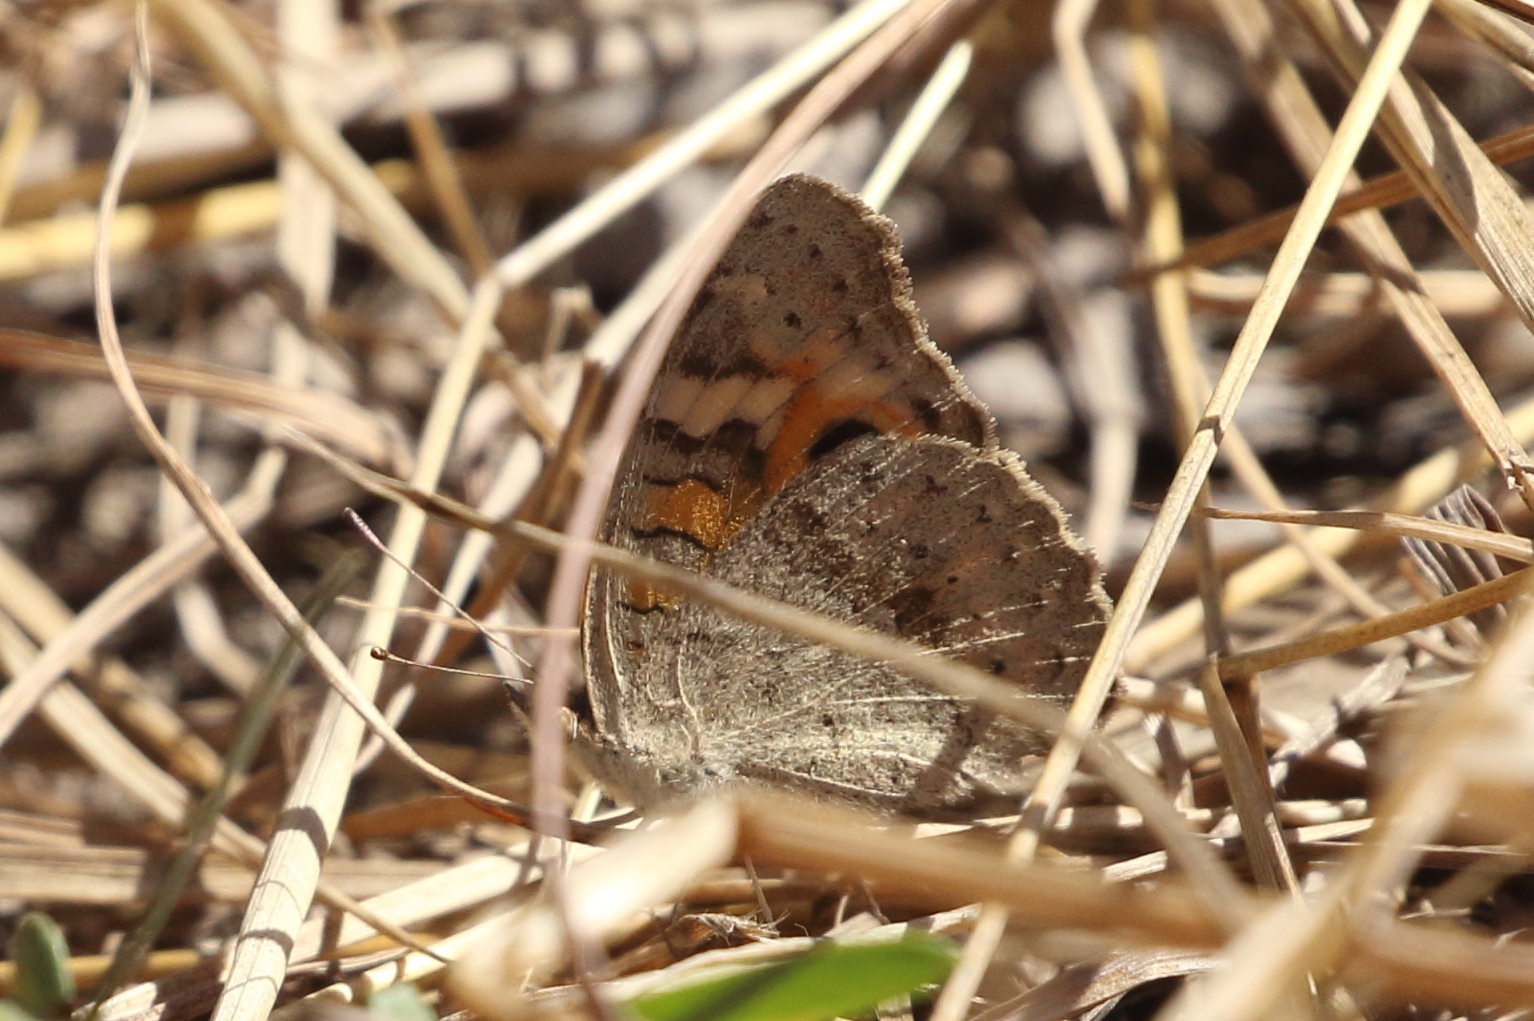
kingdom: Animalia
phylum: Arthropoda
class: Insecta
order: Lepidoptera
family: Nymphalidae
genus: Junonia
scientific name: Junonia villida
